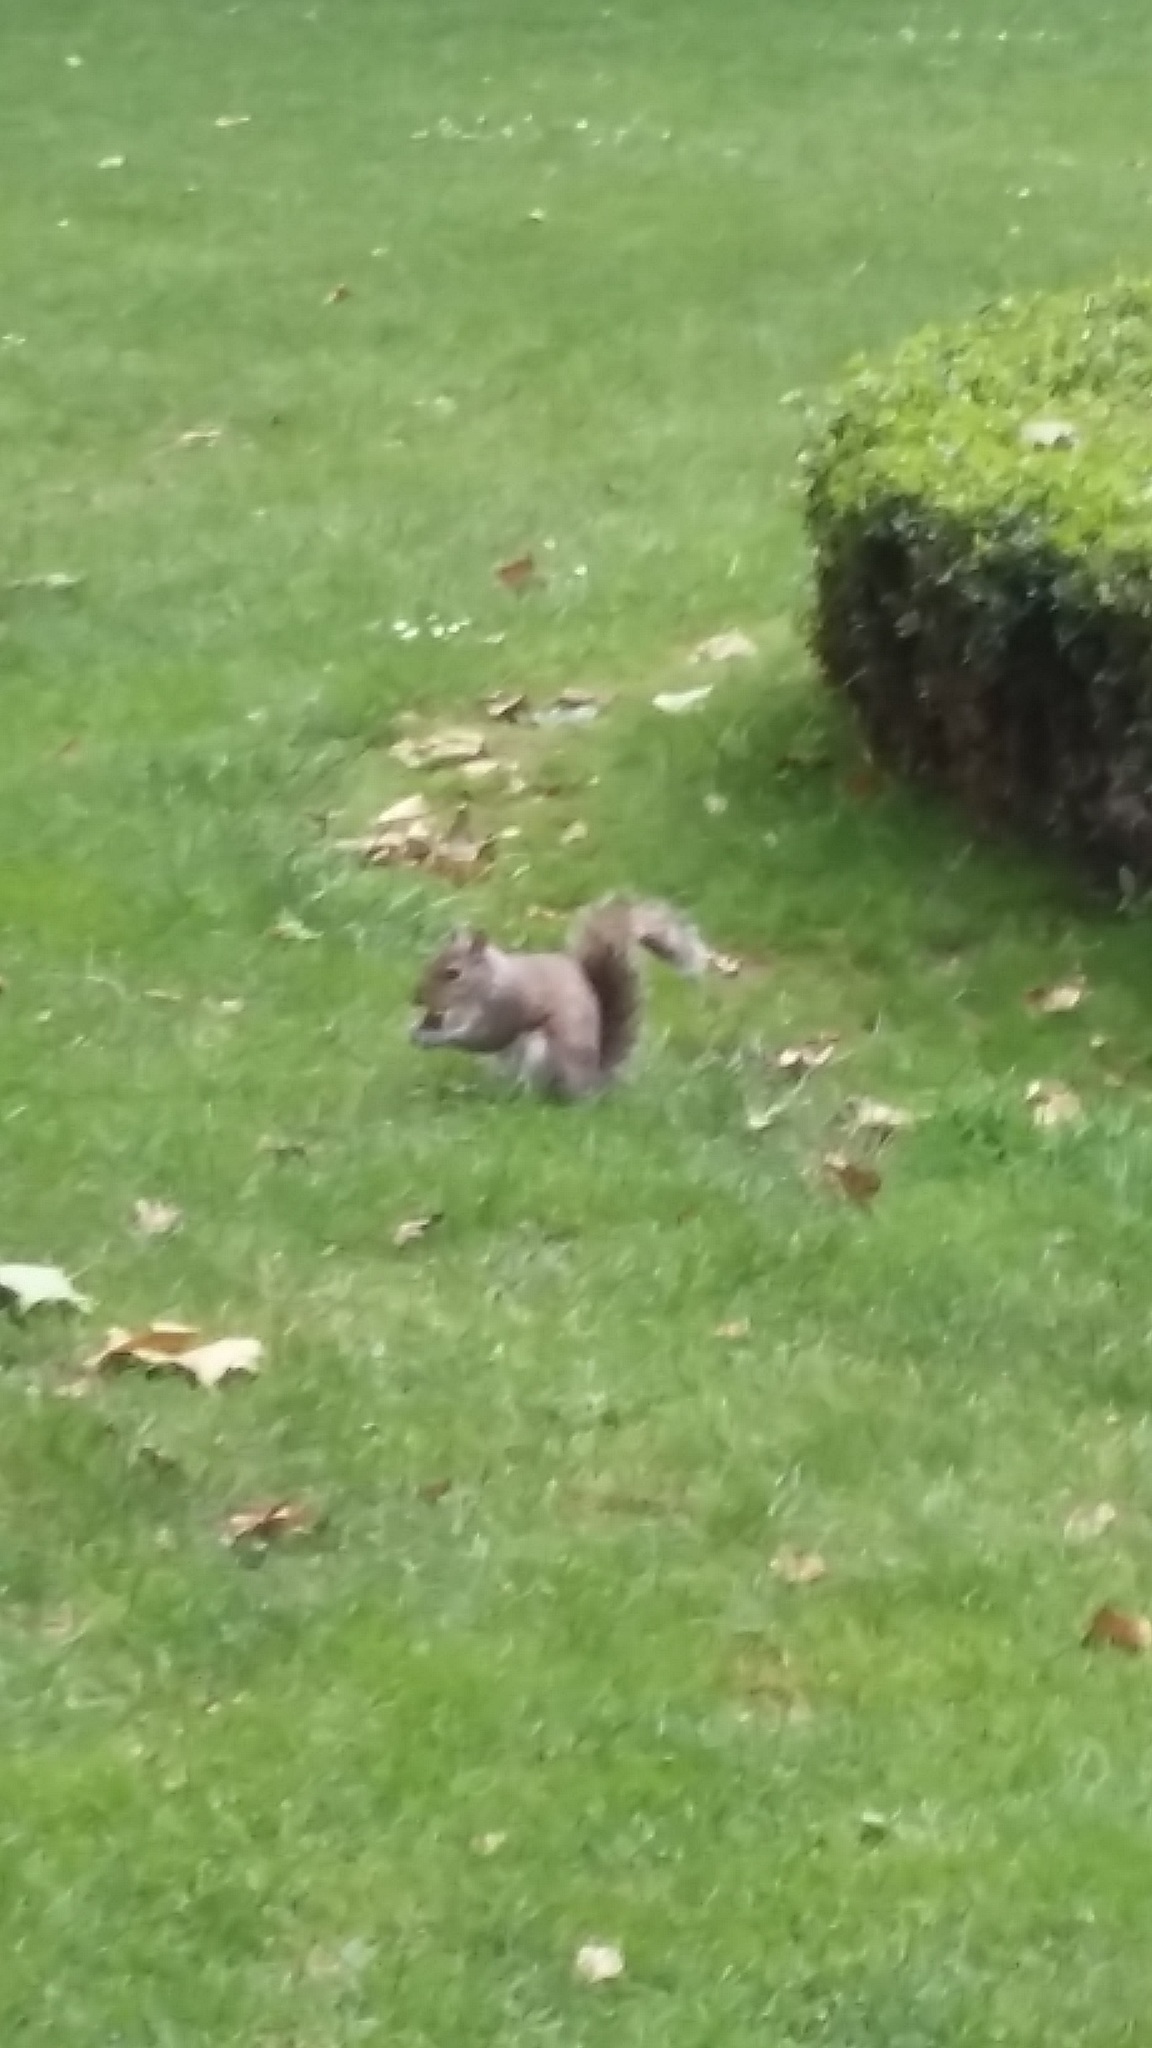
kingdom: Animalia
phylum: Chordata
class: Mammalia
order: Rodentia
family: Sciuridae
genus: Sciurus
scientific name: Sciurus carolinensis
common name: Eastern gray squirrel
